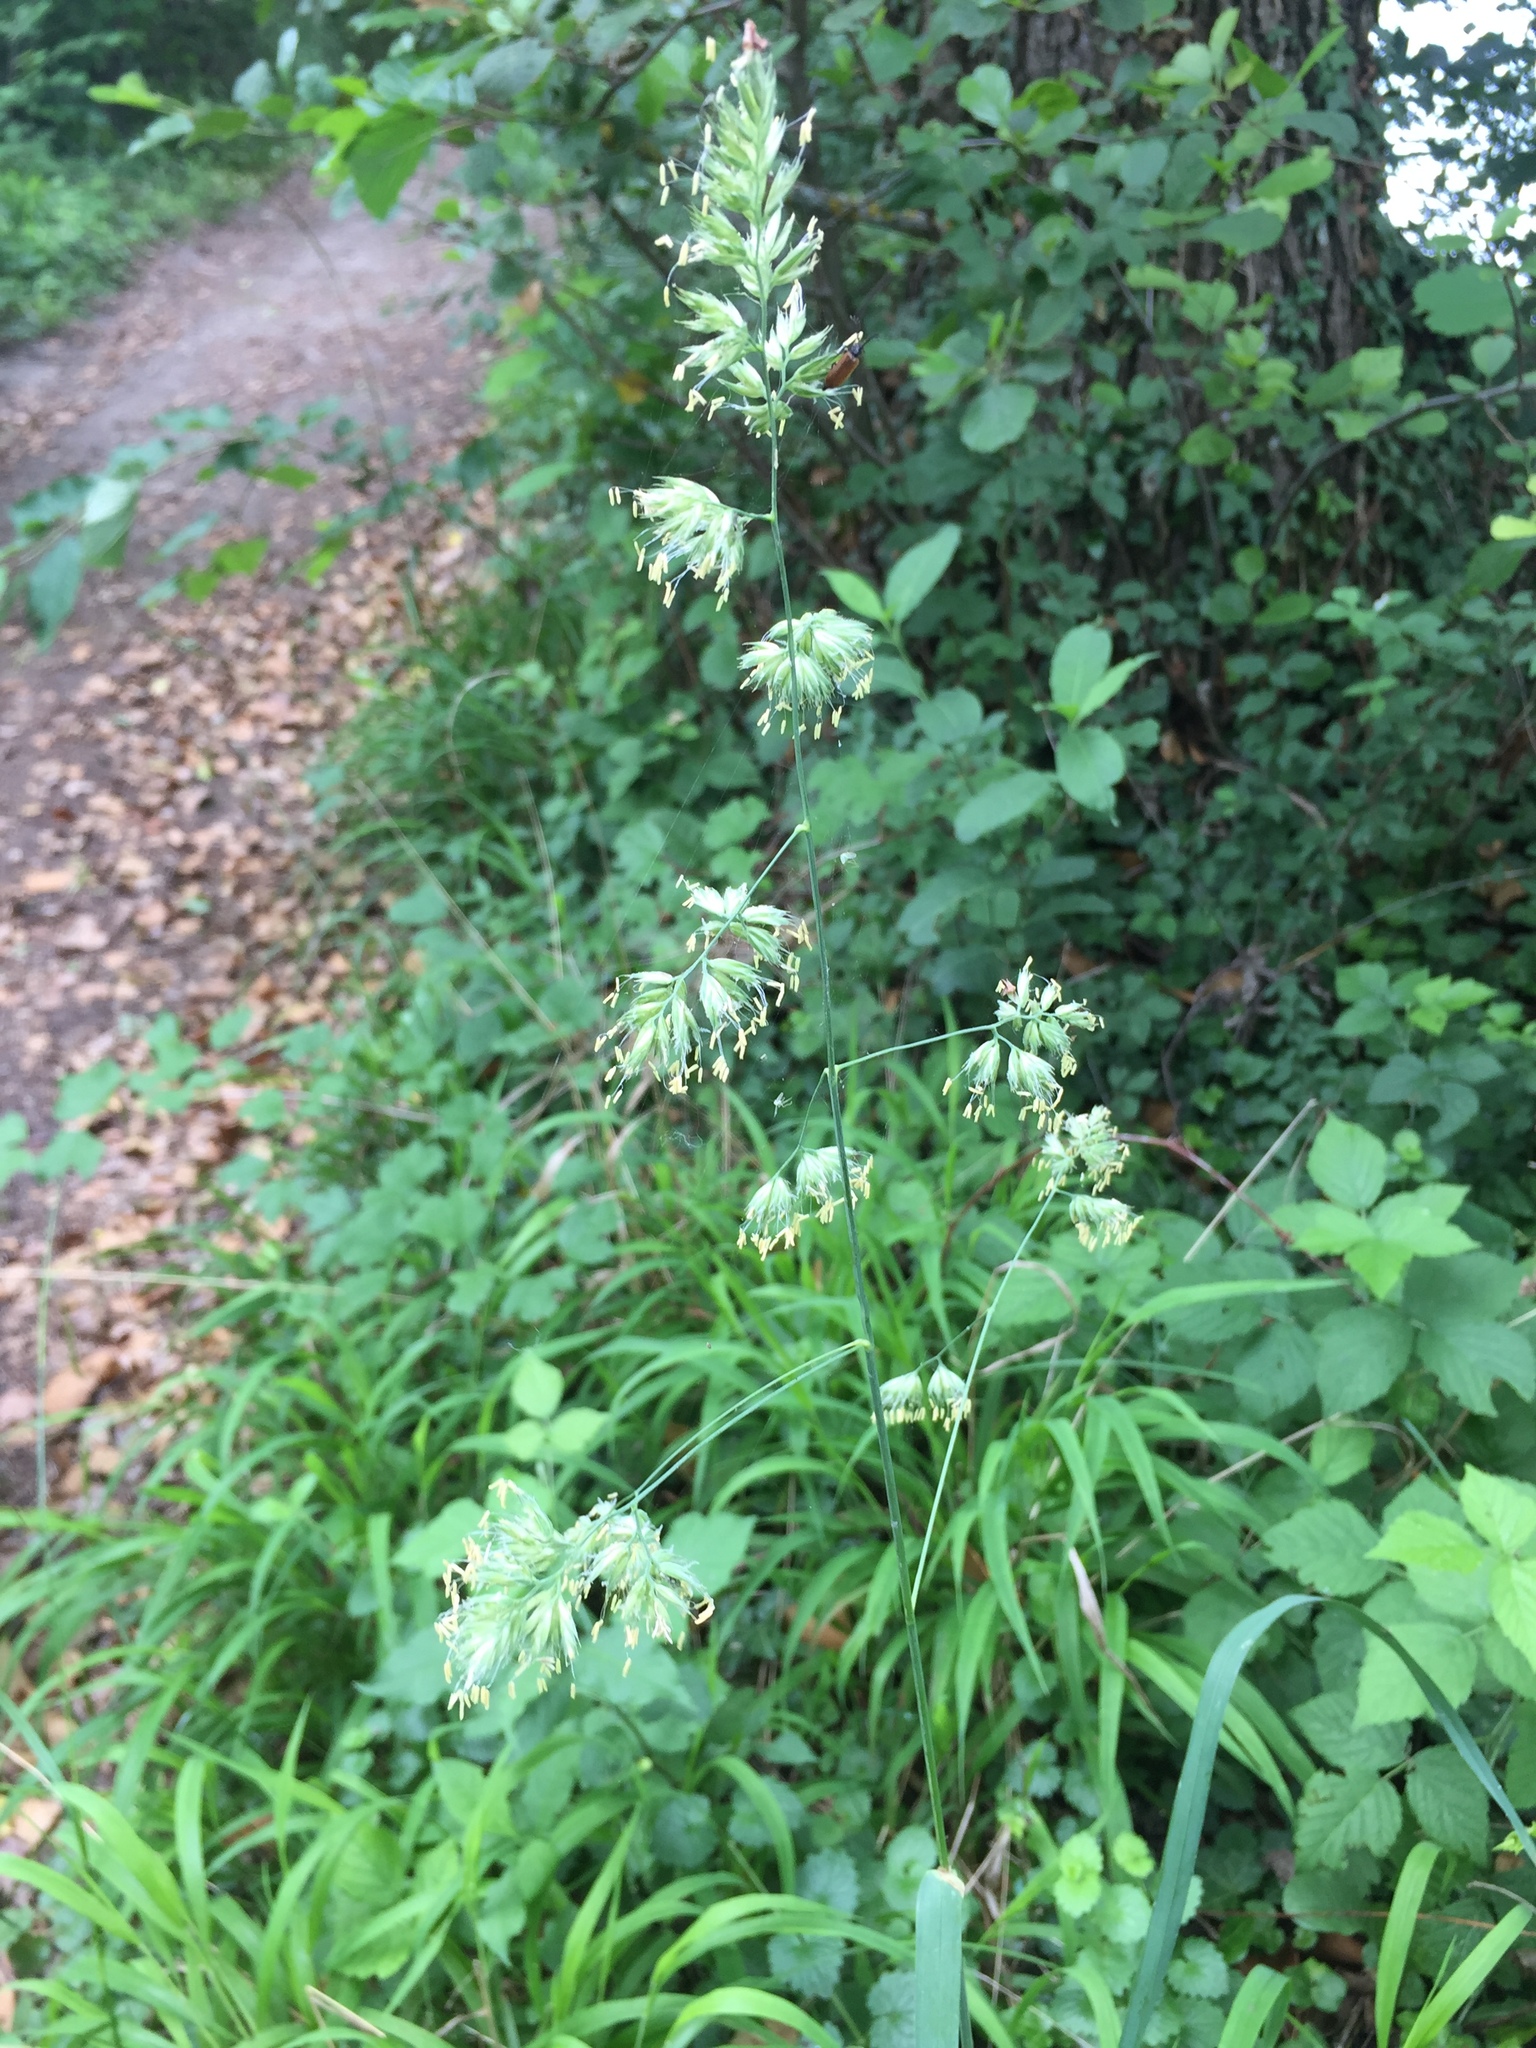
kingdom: Plantae
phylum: Tracheophyta
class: Liliopsida
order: Poales
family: Poaceae
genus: Dactylis
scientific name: Dactylis glomerata
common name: Orchardgrass
